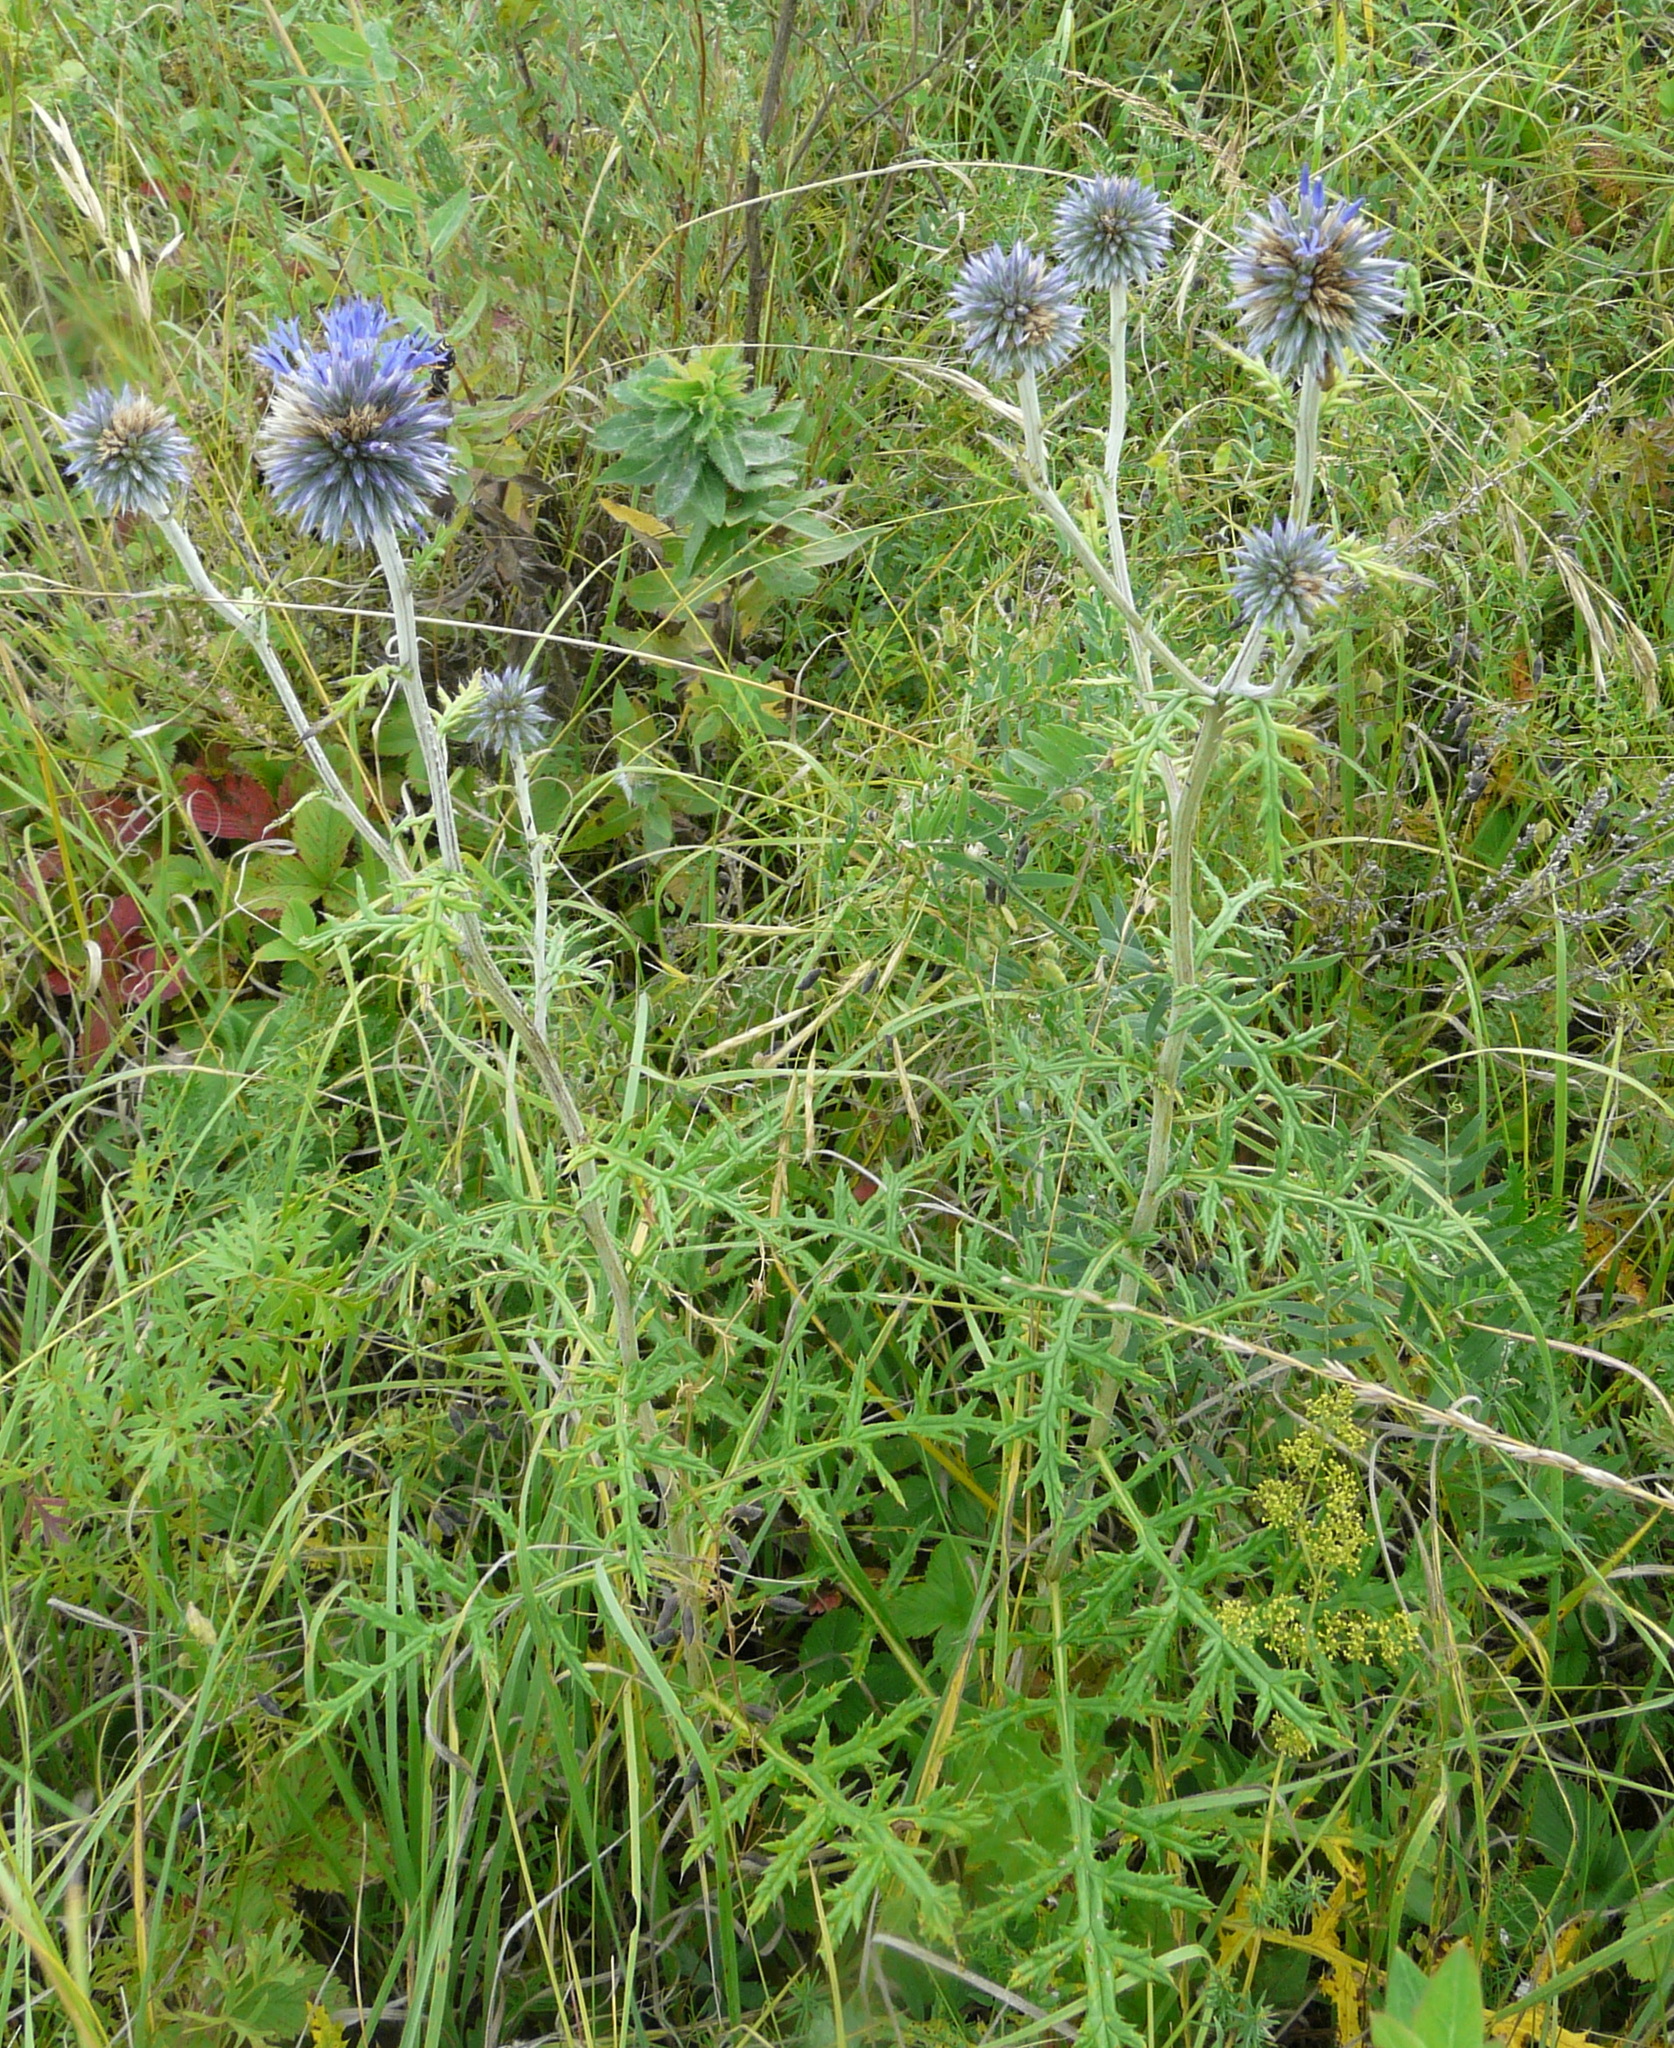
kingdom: Plantae
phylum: Tracheophyta
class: Magnoliopsida
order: Asterales
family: Asteraceae
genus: Echinops
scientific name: Echinops ritro
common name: Globe thistle
